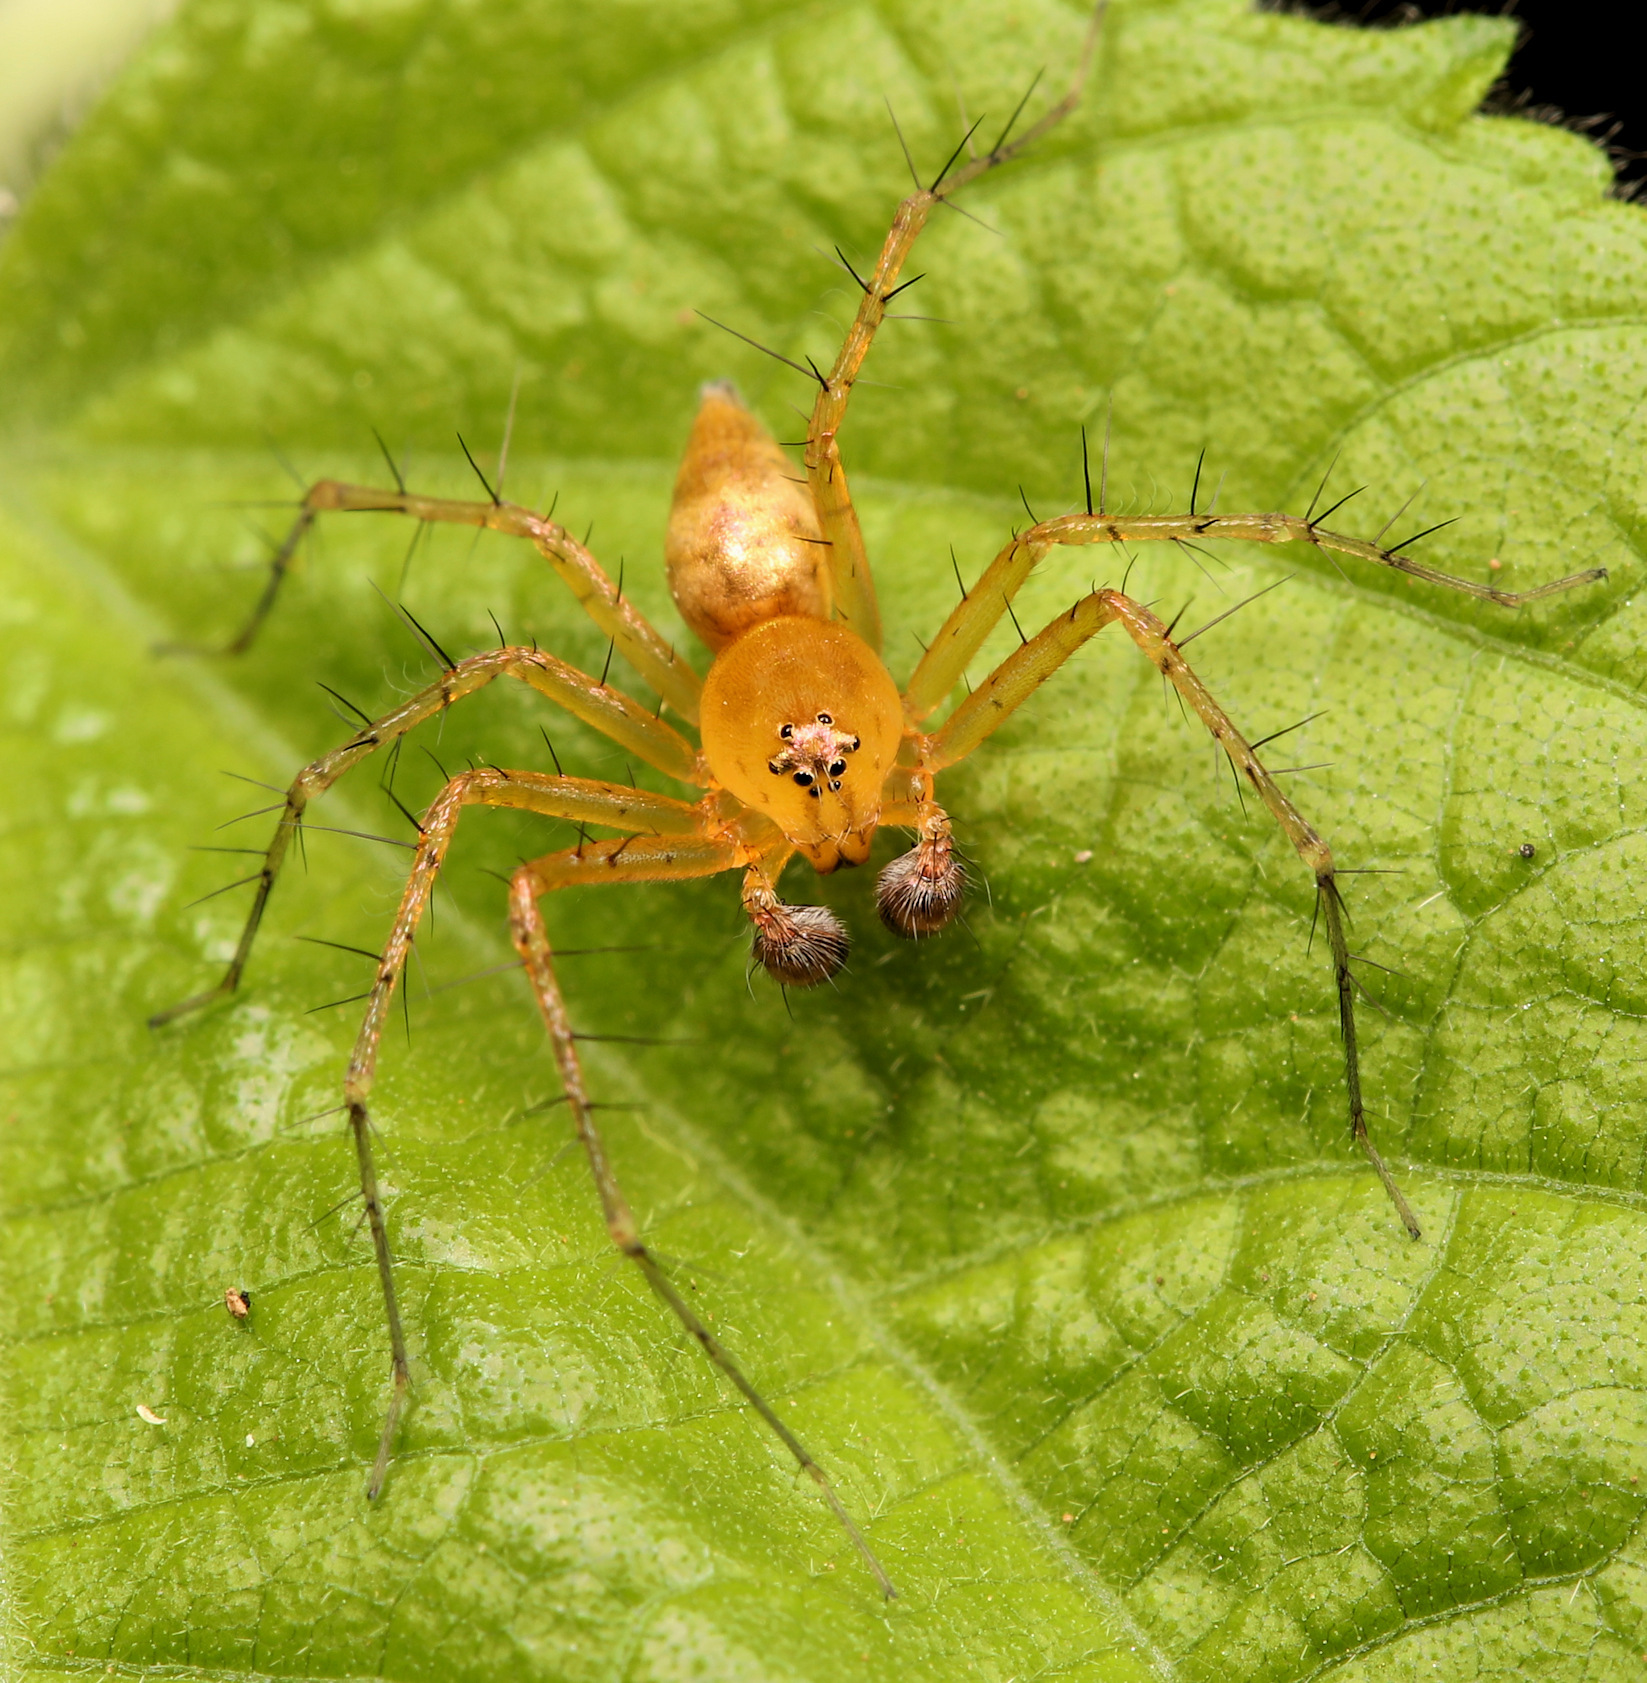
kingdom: Animalia
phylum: Arthropoda
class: Arachnida
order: Araneae
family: Oxyopidae
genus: Oxyopes
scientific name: Oxyopes vogelsangeri
